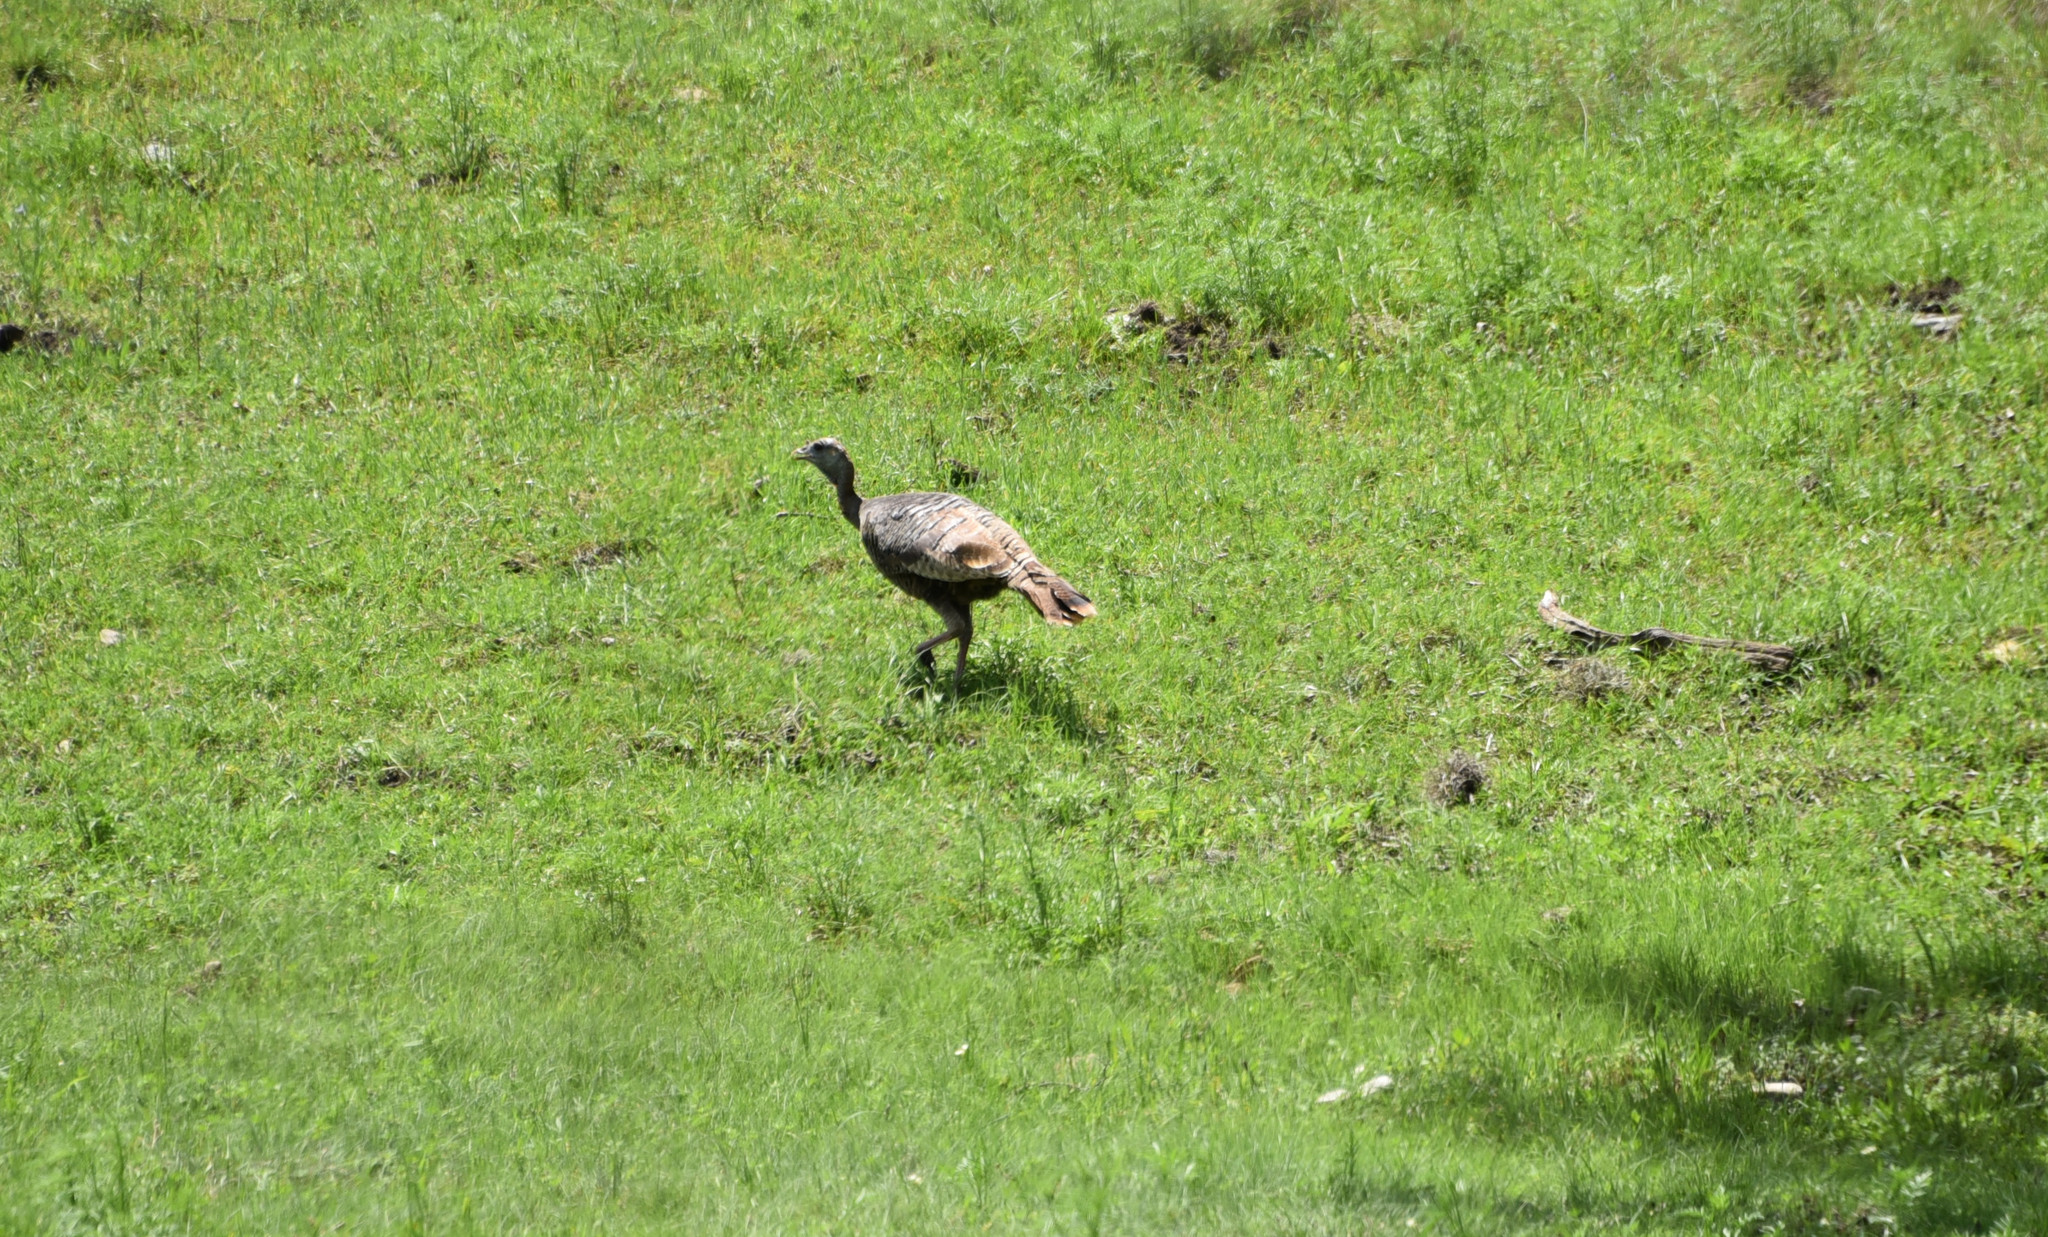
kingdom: Animalia
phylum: Chordata
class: Aves
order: Galliformes
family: Phasianidae
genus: Meleagris
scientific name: Meleagris gallopavo
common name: Wild turkey
